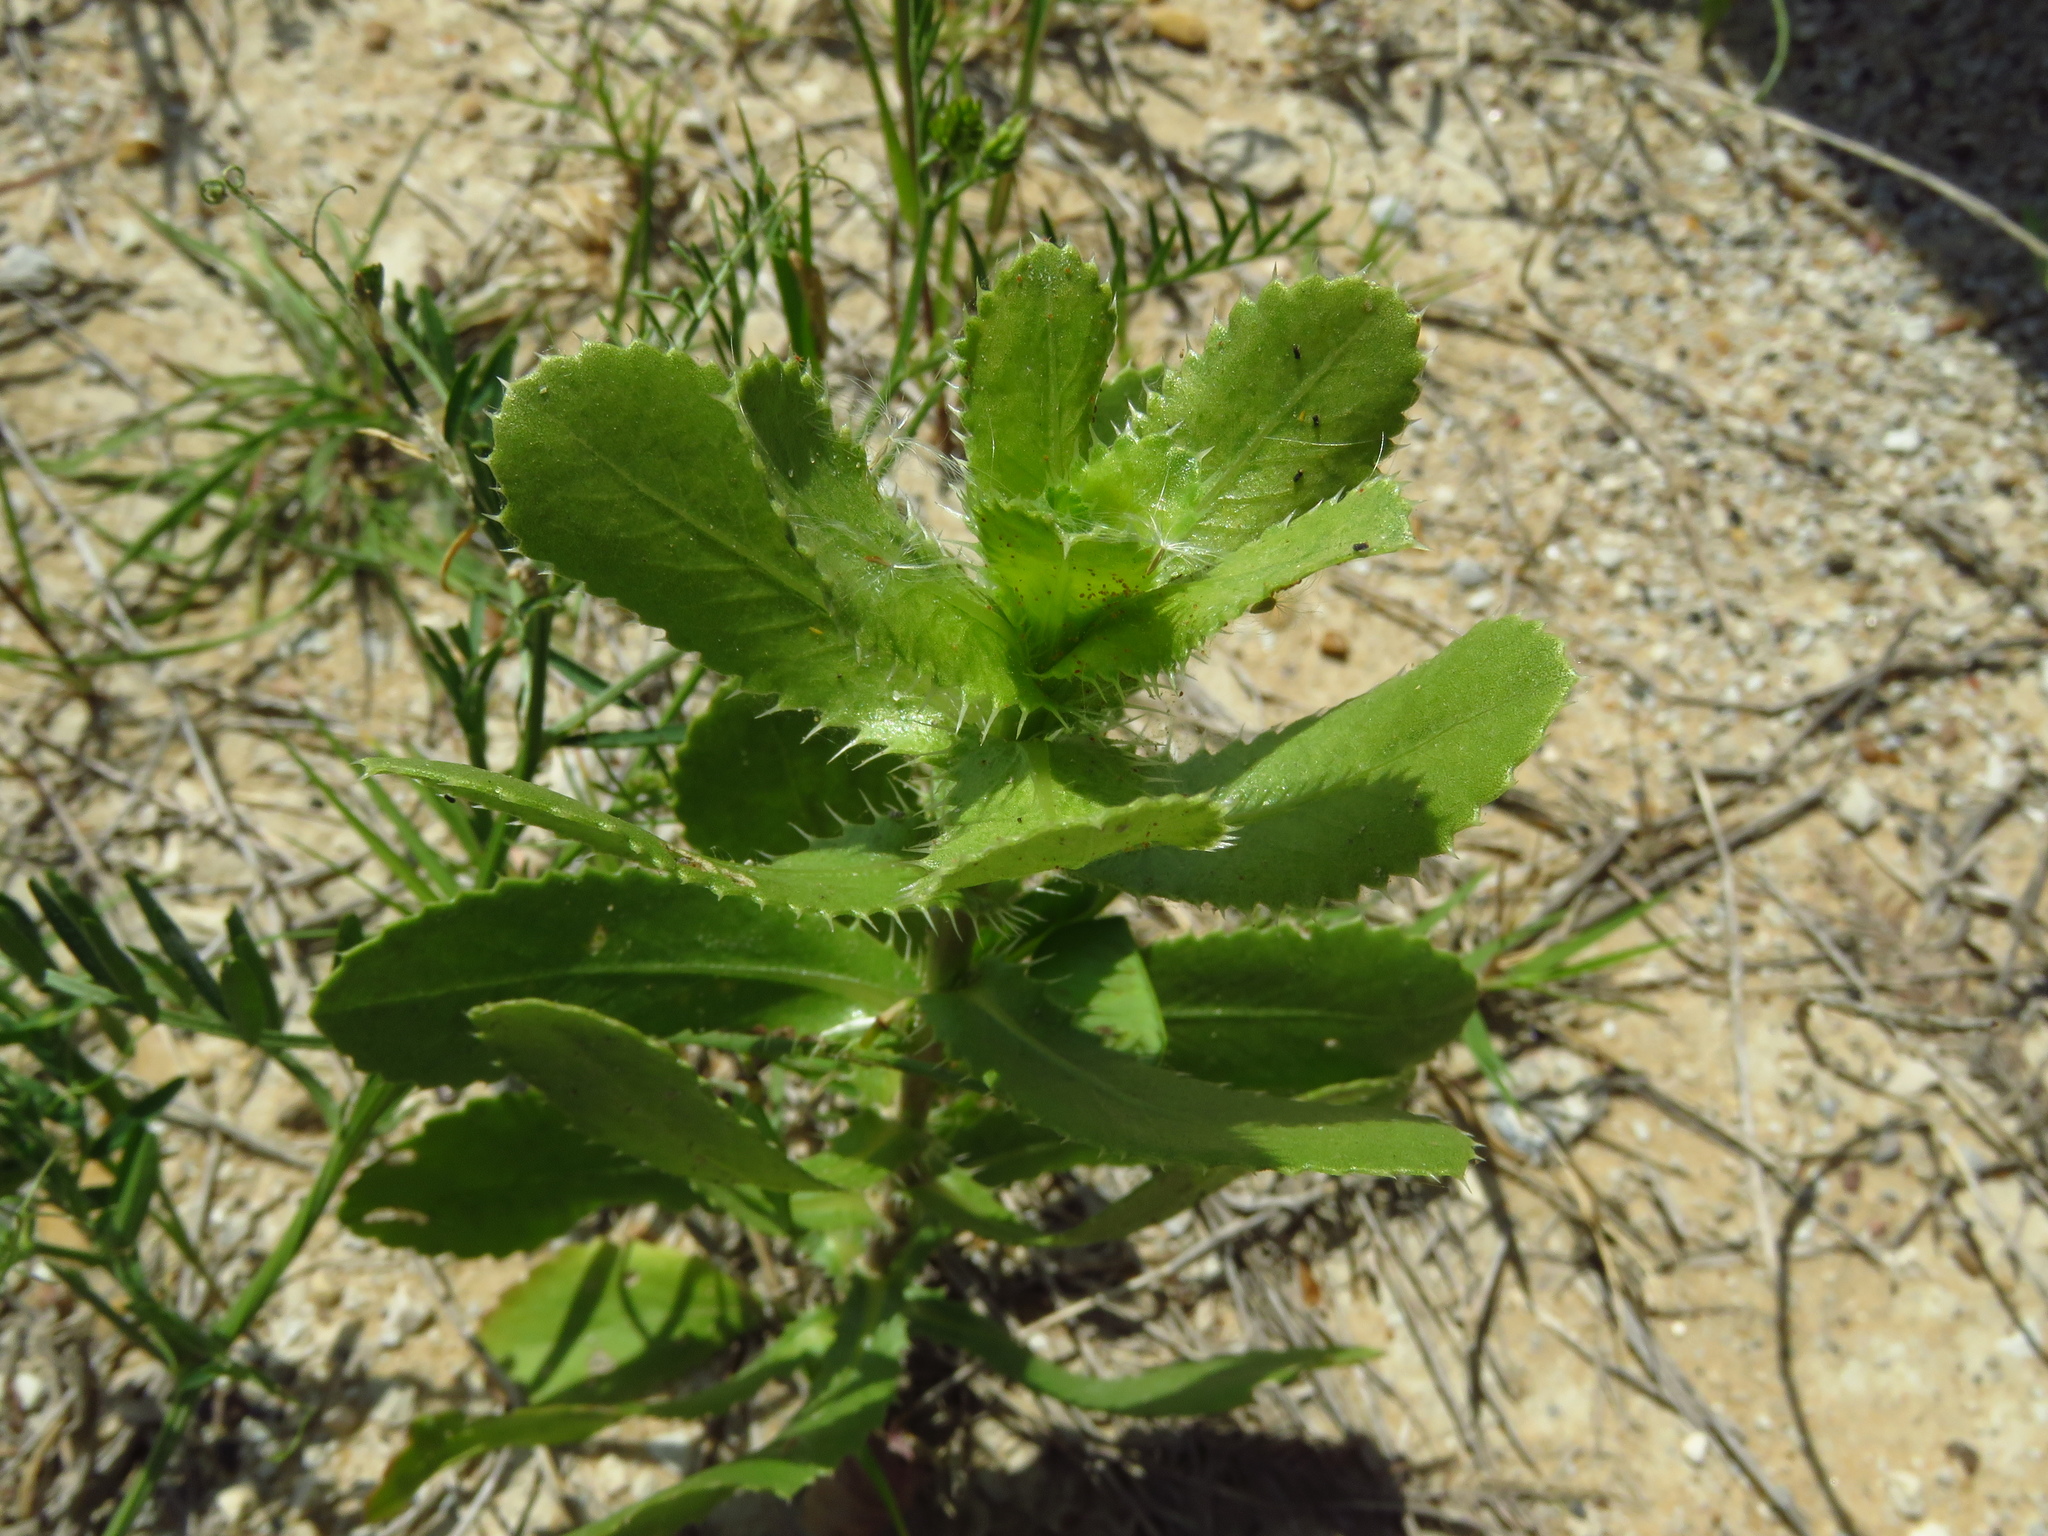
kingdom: Plantae
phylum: Tracheophyta
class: Magnoliopsida
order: Asterales
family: Asteraceae
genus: Grindelia
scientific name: Grindelia ciliata
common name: Goldenweed
